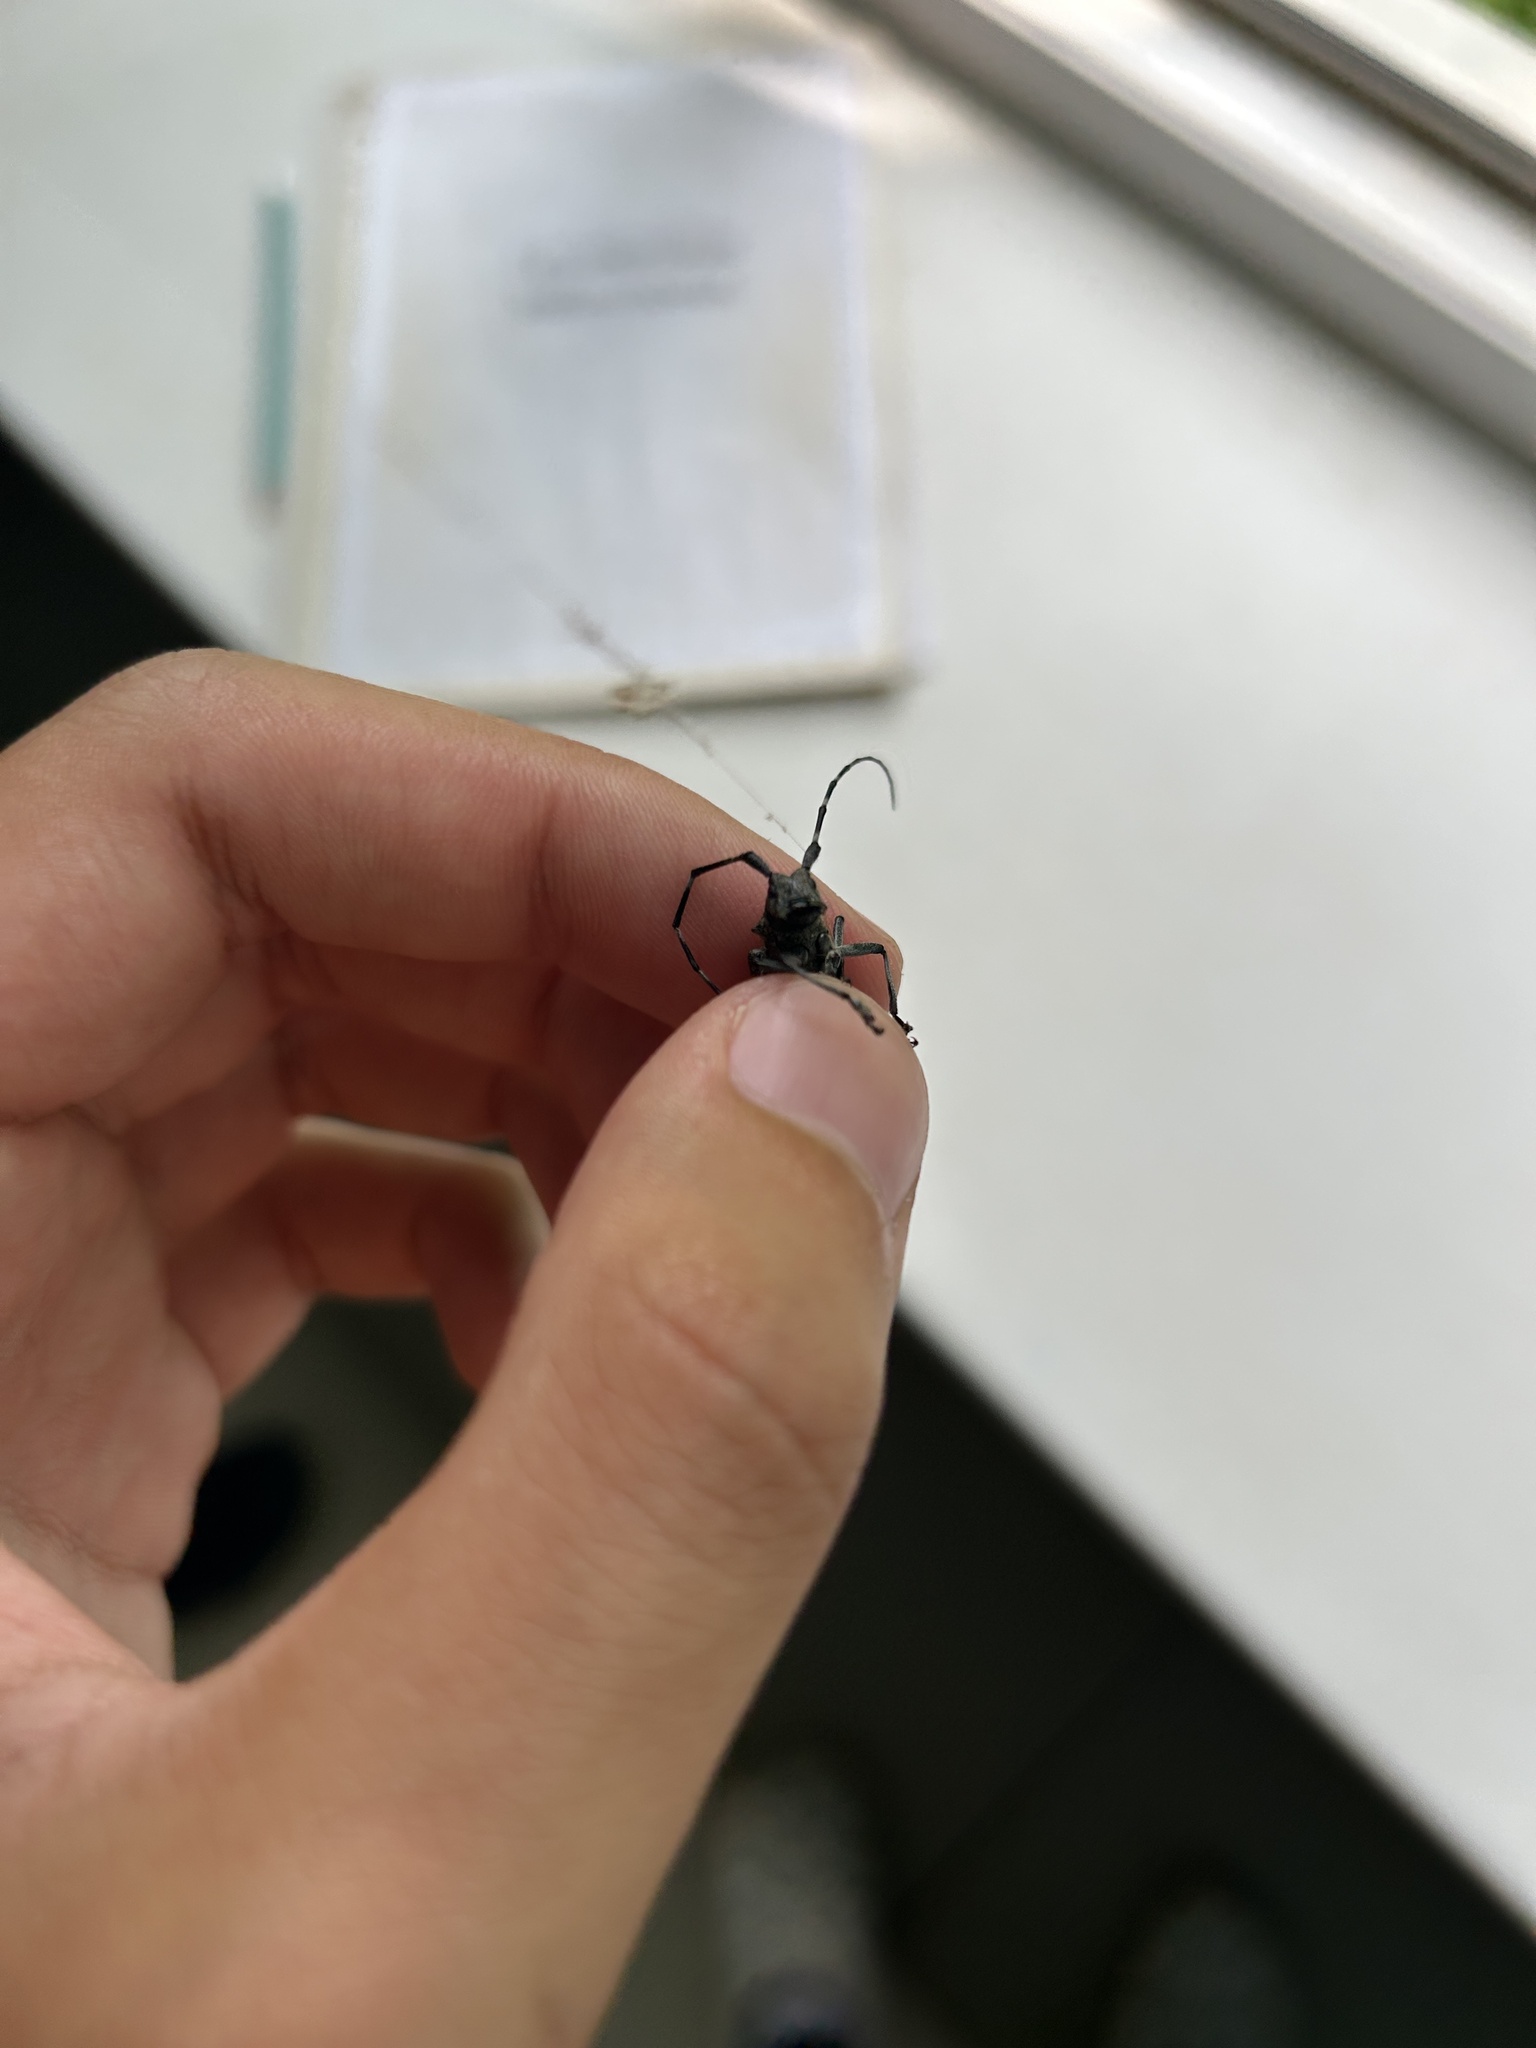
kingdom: Animalia
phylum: Arthropoda
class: Insecta
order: Coleoptera
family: Cerambycidae
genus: Monochamus
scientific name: Monochamus sutor
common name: Pine sawyer
